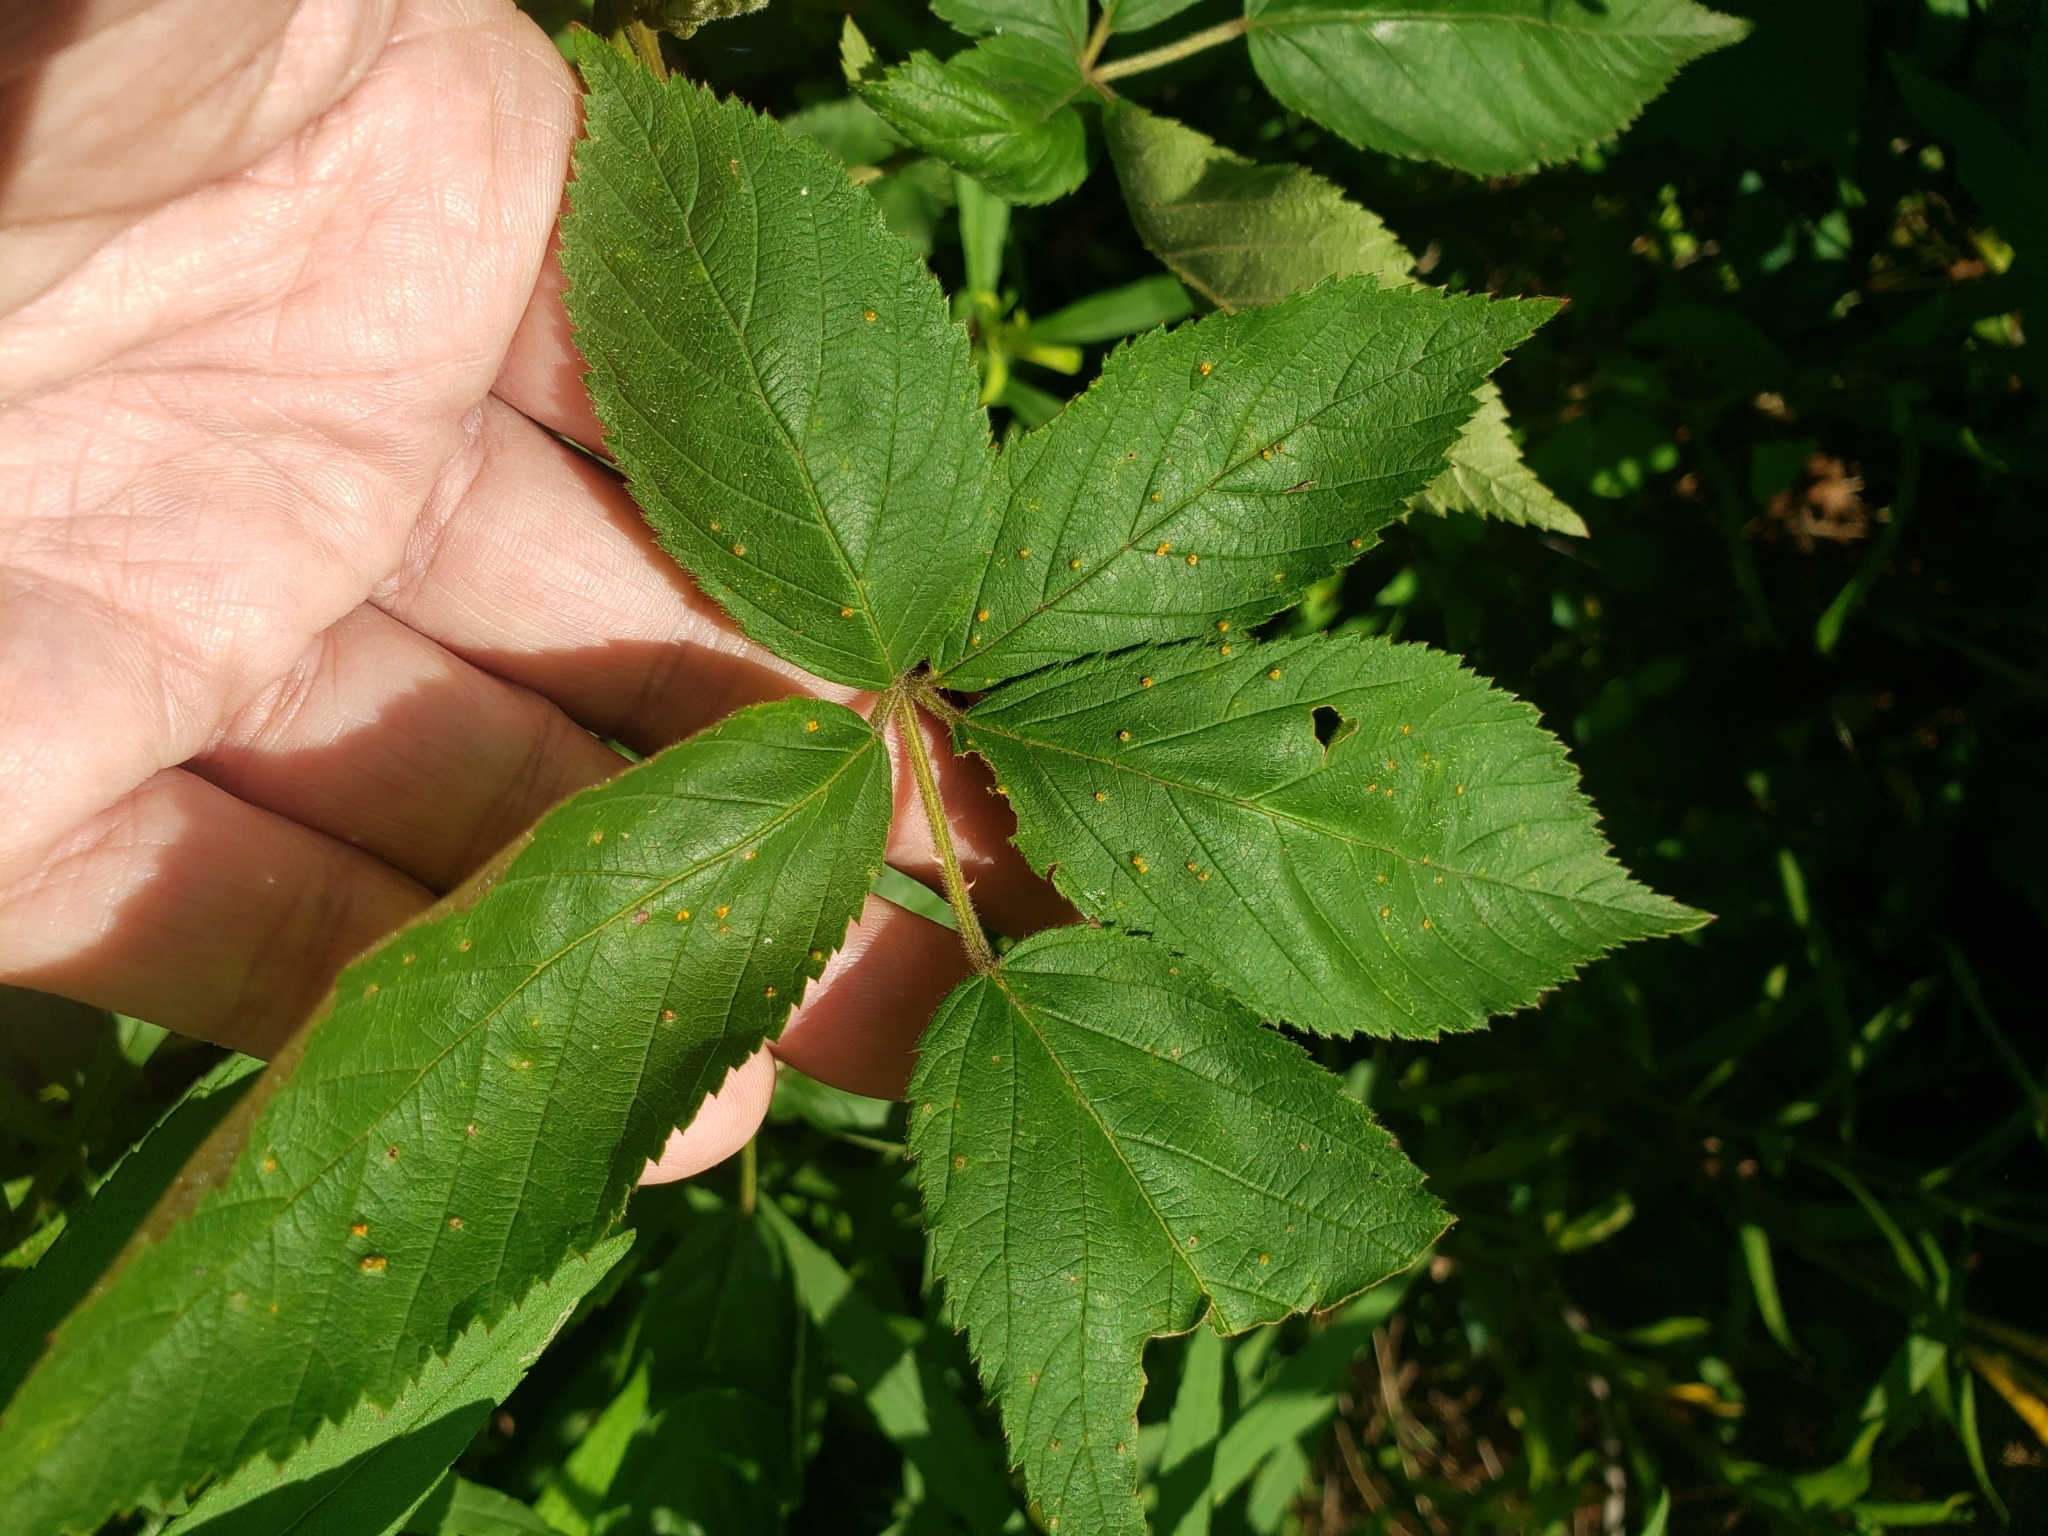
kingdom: Animalia
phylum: Arthropoda
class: Insecta
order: Diptera
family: Tephritidae
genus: Eurosta
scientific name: Eurosta solidaginis
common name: Goldenrod gall fly
